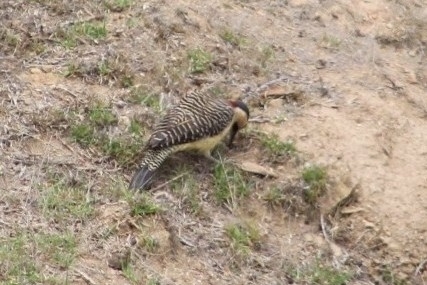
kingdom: Animalia
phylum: Chordata
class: Aves
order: Piciformes
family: Picidae
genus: Colaptes
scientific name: Colaptes rupicola
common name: Andean flicker
